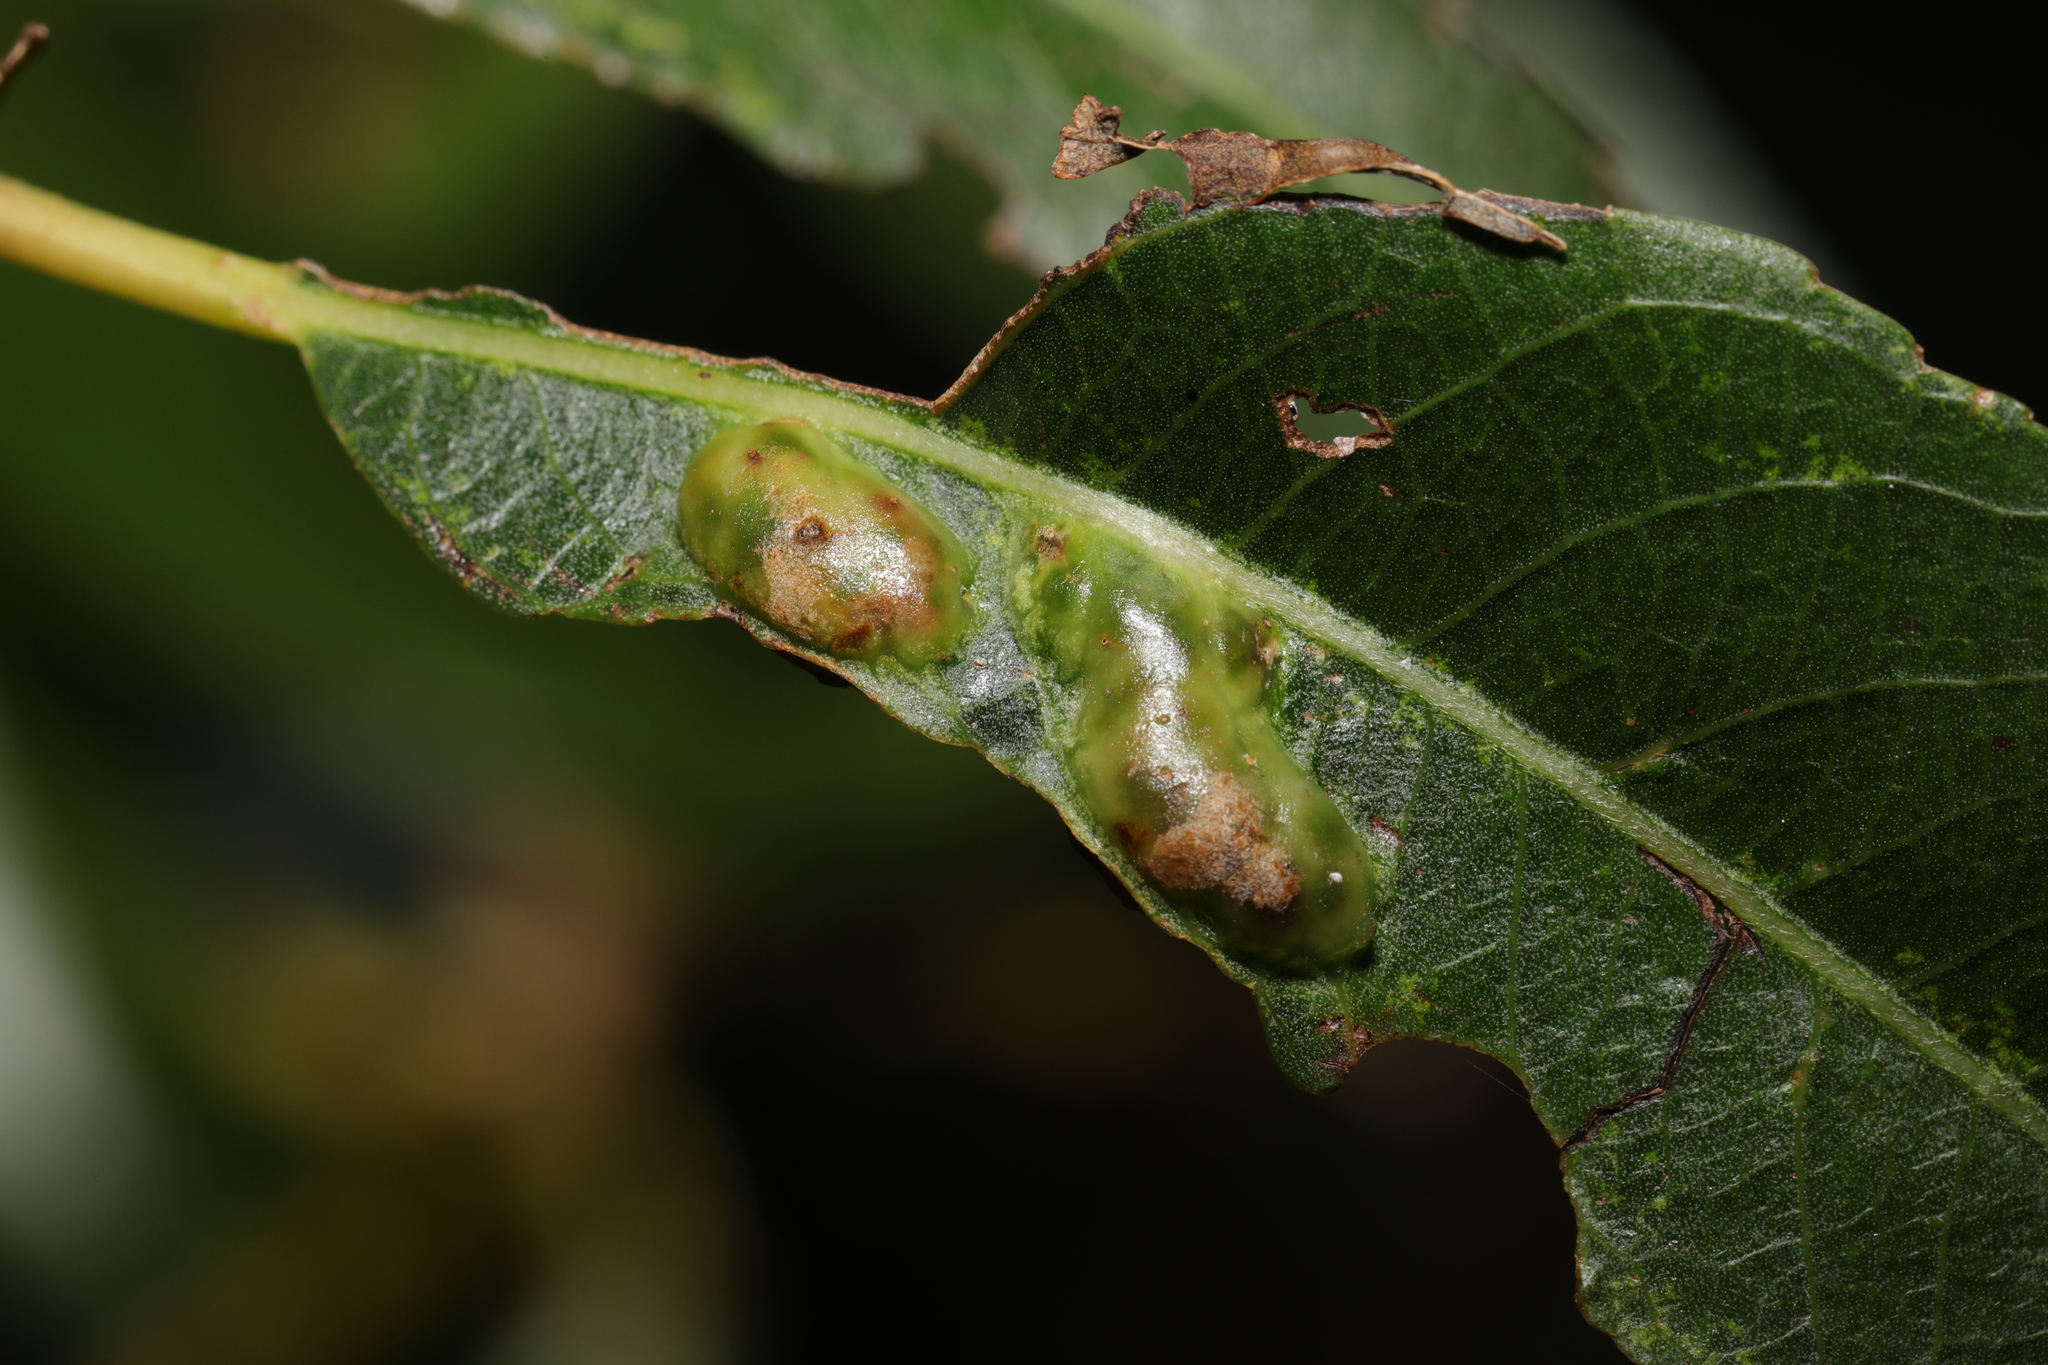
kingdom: Animalia
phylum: Arthropoda
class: Insecta
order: Hymenoptera
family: Tenthredinidae
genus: Pontania
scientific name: Pontania proxima
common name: Common sawfly
